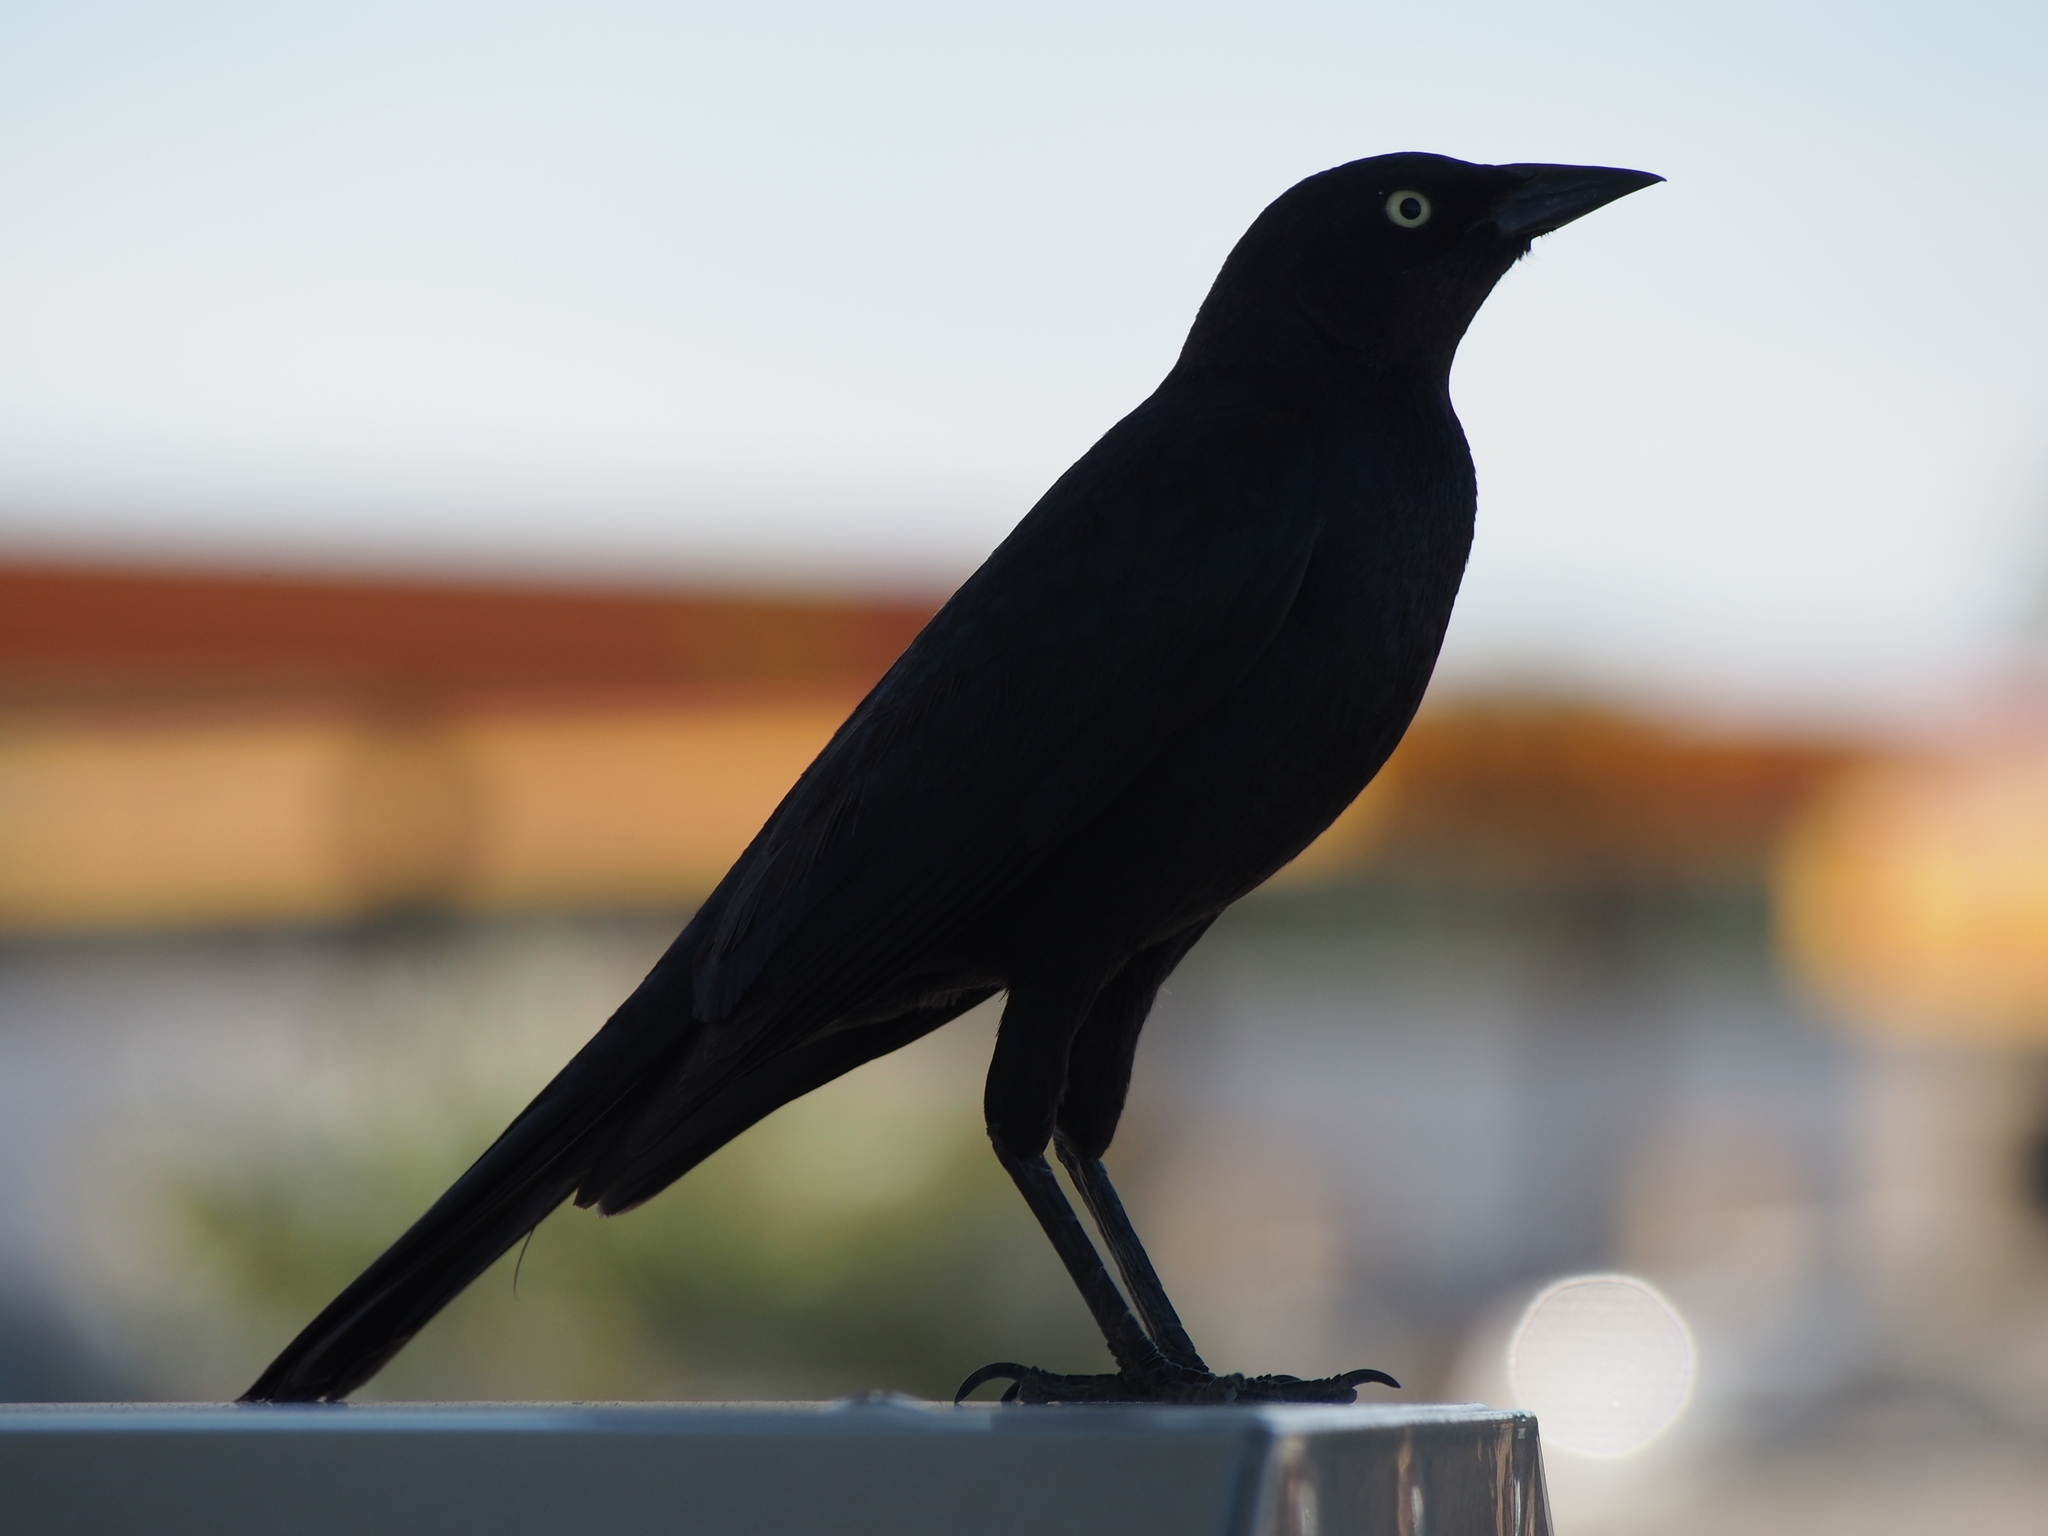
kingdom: Animalia
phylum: Chordata
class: Aves
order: Passeriformes
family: Icteridae
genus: Euphagus
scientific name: Euphagus cyanocephalus
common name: Brewer's blackbird
